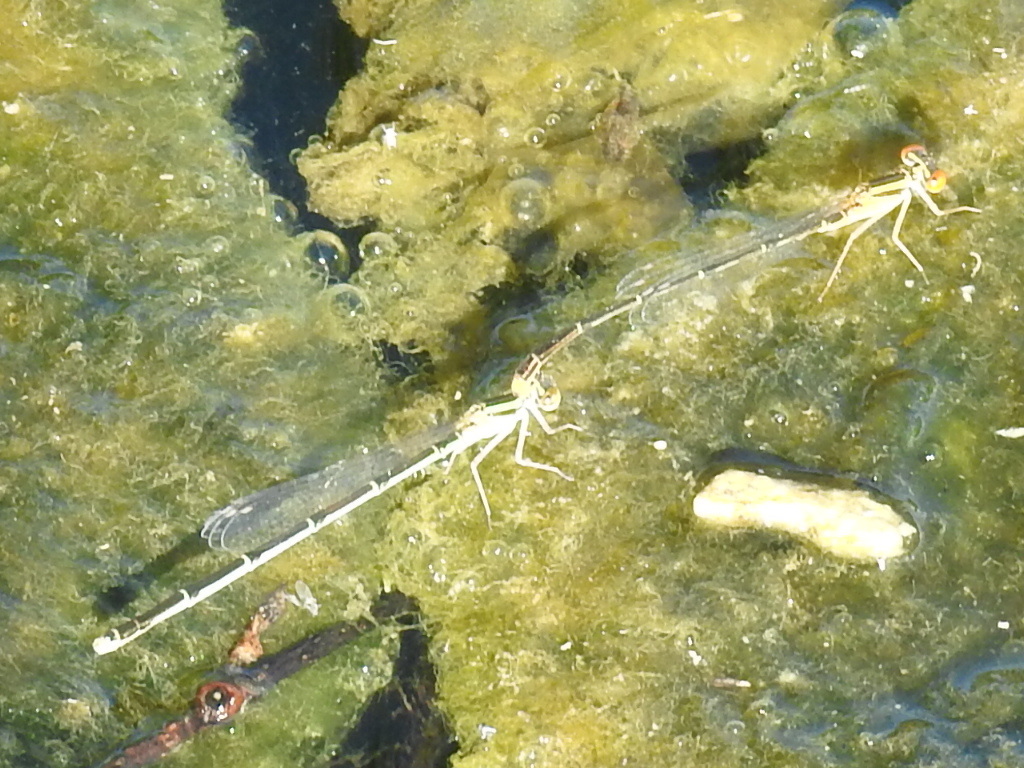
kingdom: Animalia
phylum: Arthropoda
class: Insecta
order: Odonata
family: Coenagrionidae
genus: Enallagma
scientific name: Enallagma signatum
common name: Orange bluet
